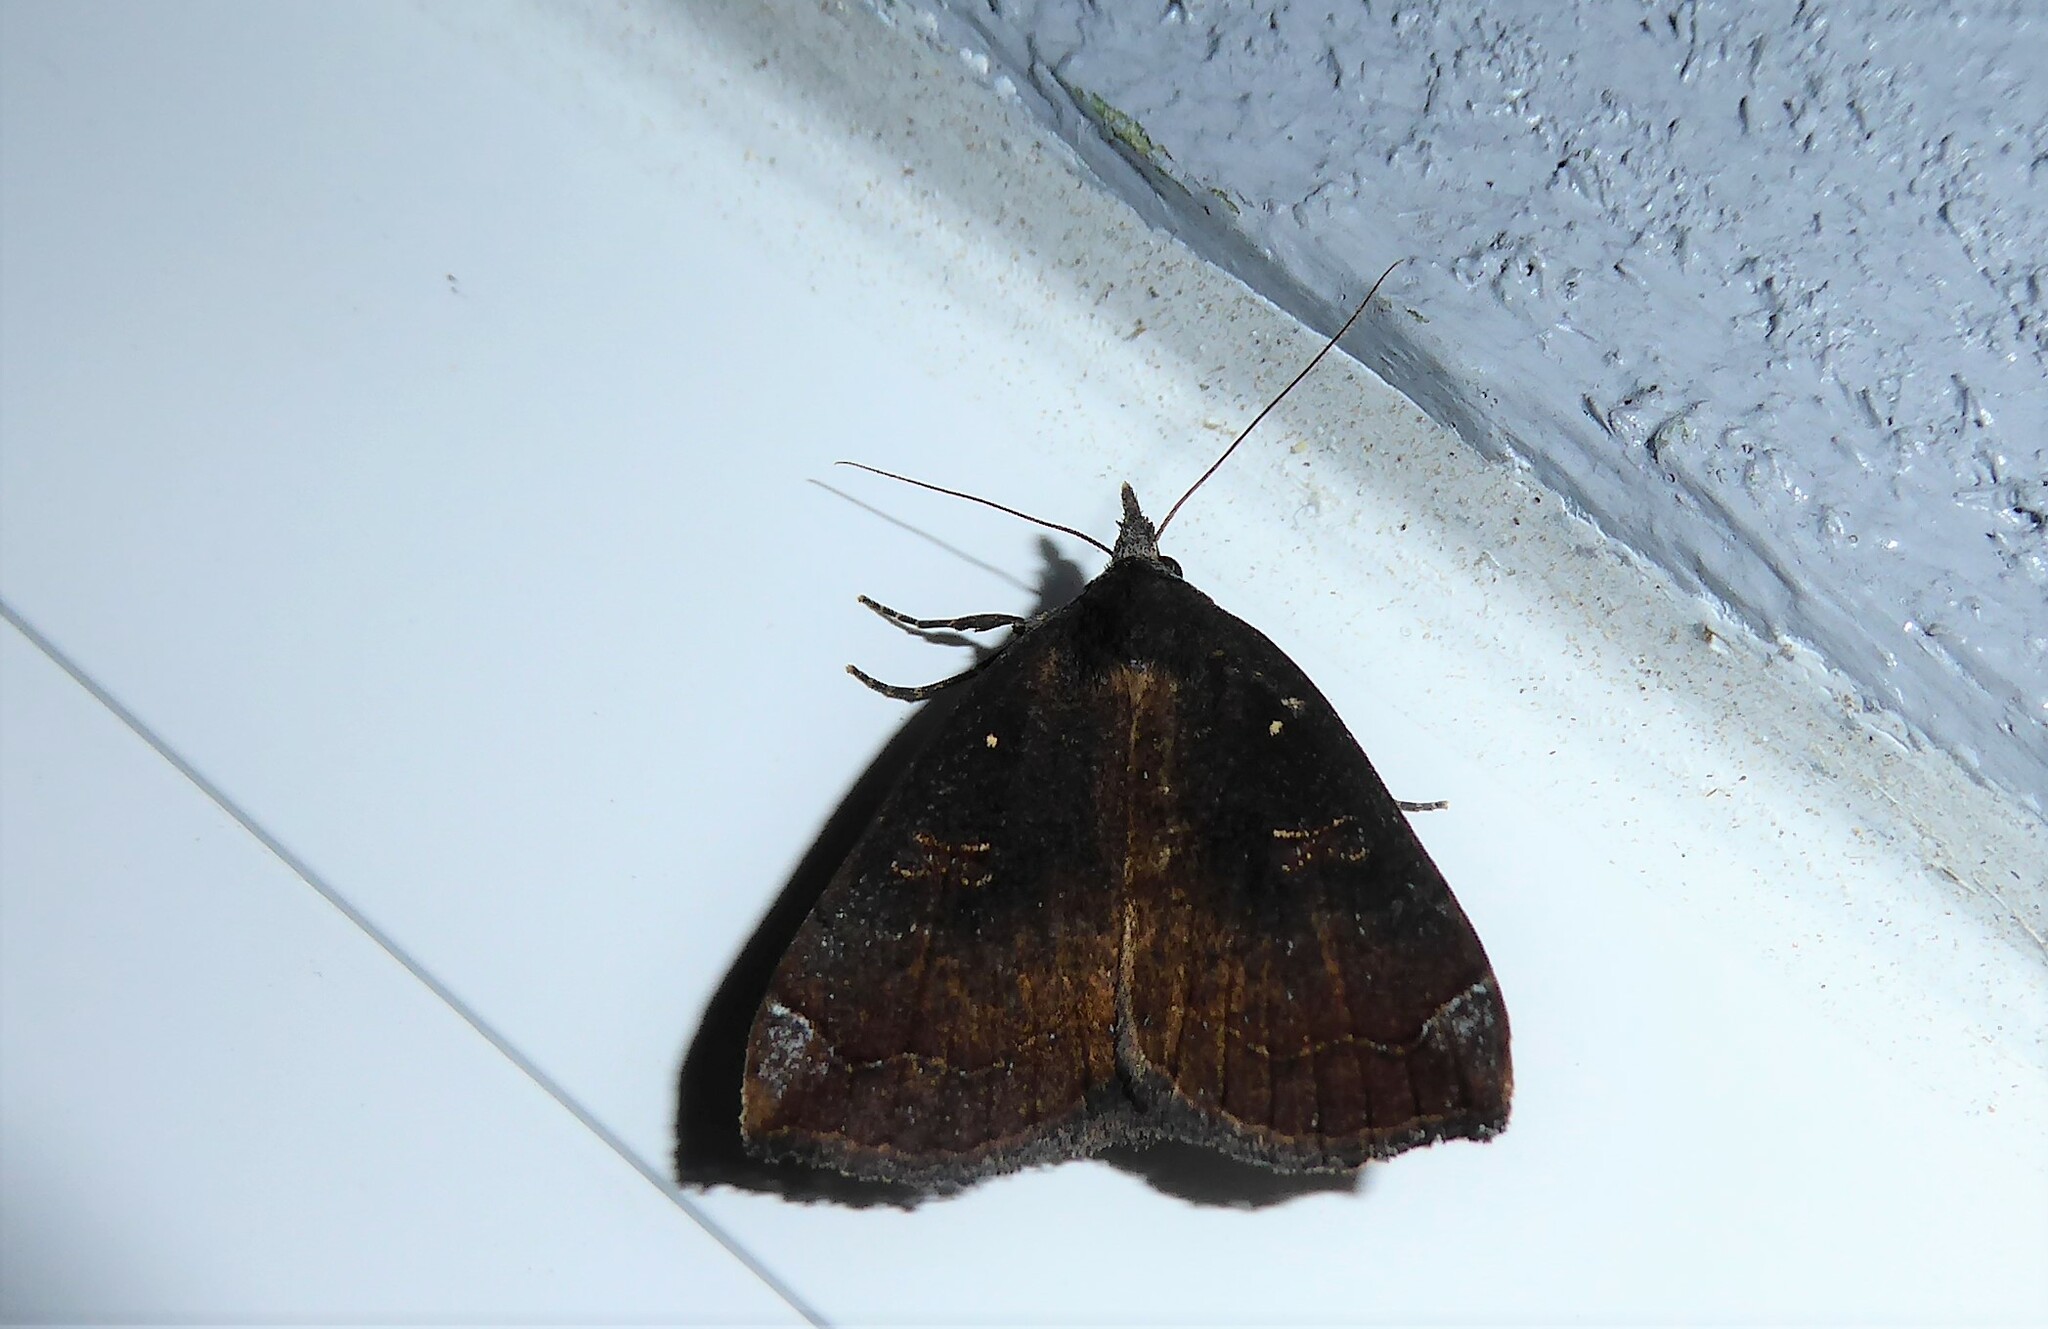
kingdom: Animalia
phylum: Arthropoda
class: Insecta
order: Lepidoptera
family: Erebidae
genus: Rhapsa
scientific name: Rhapsa scotosialis
